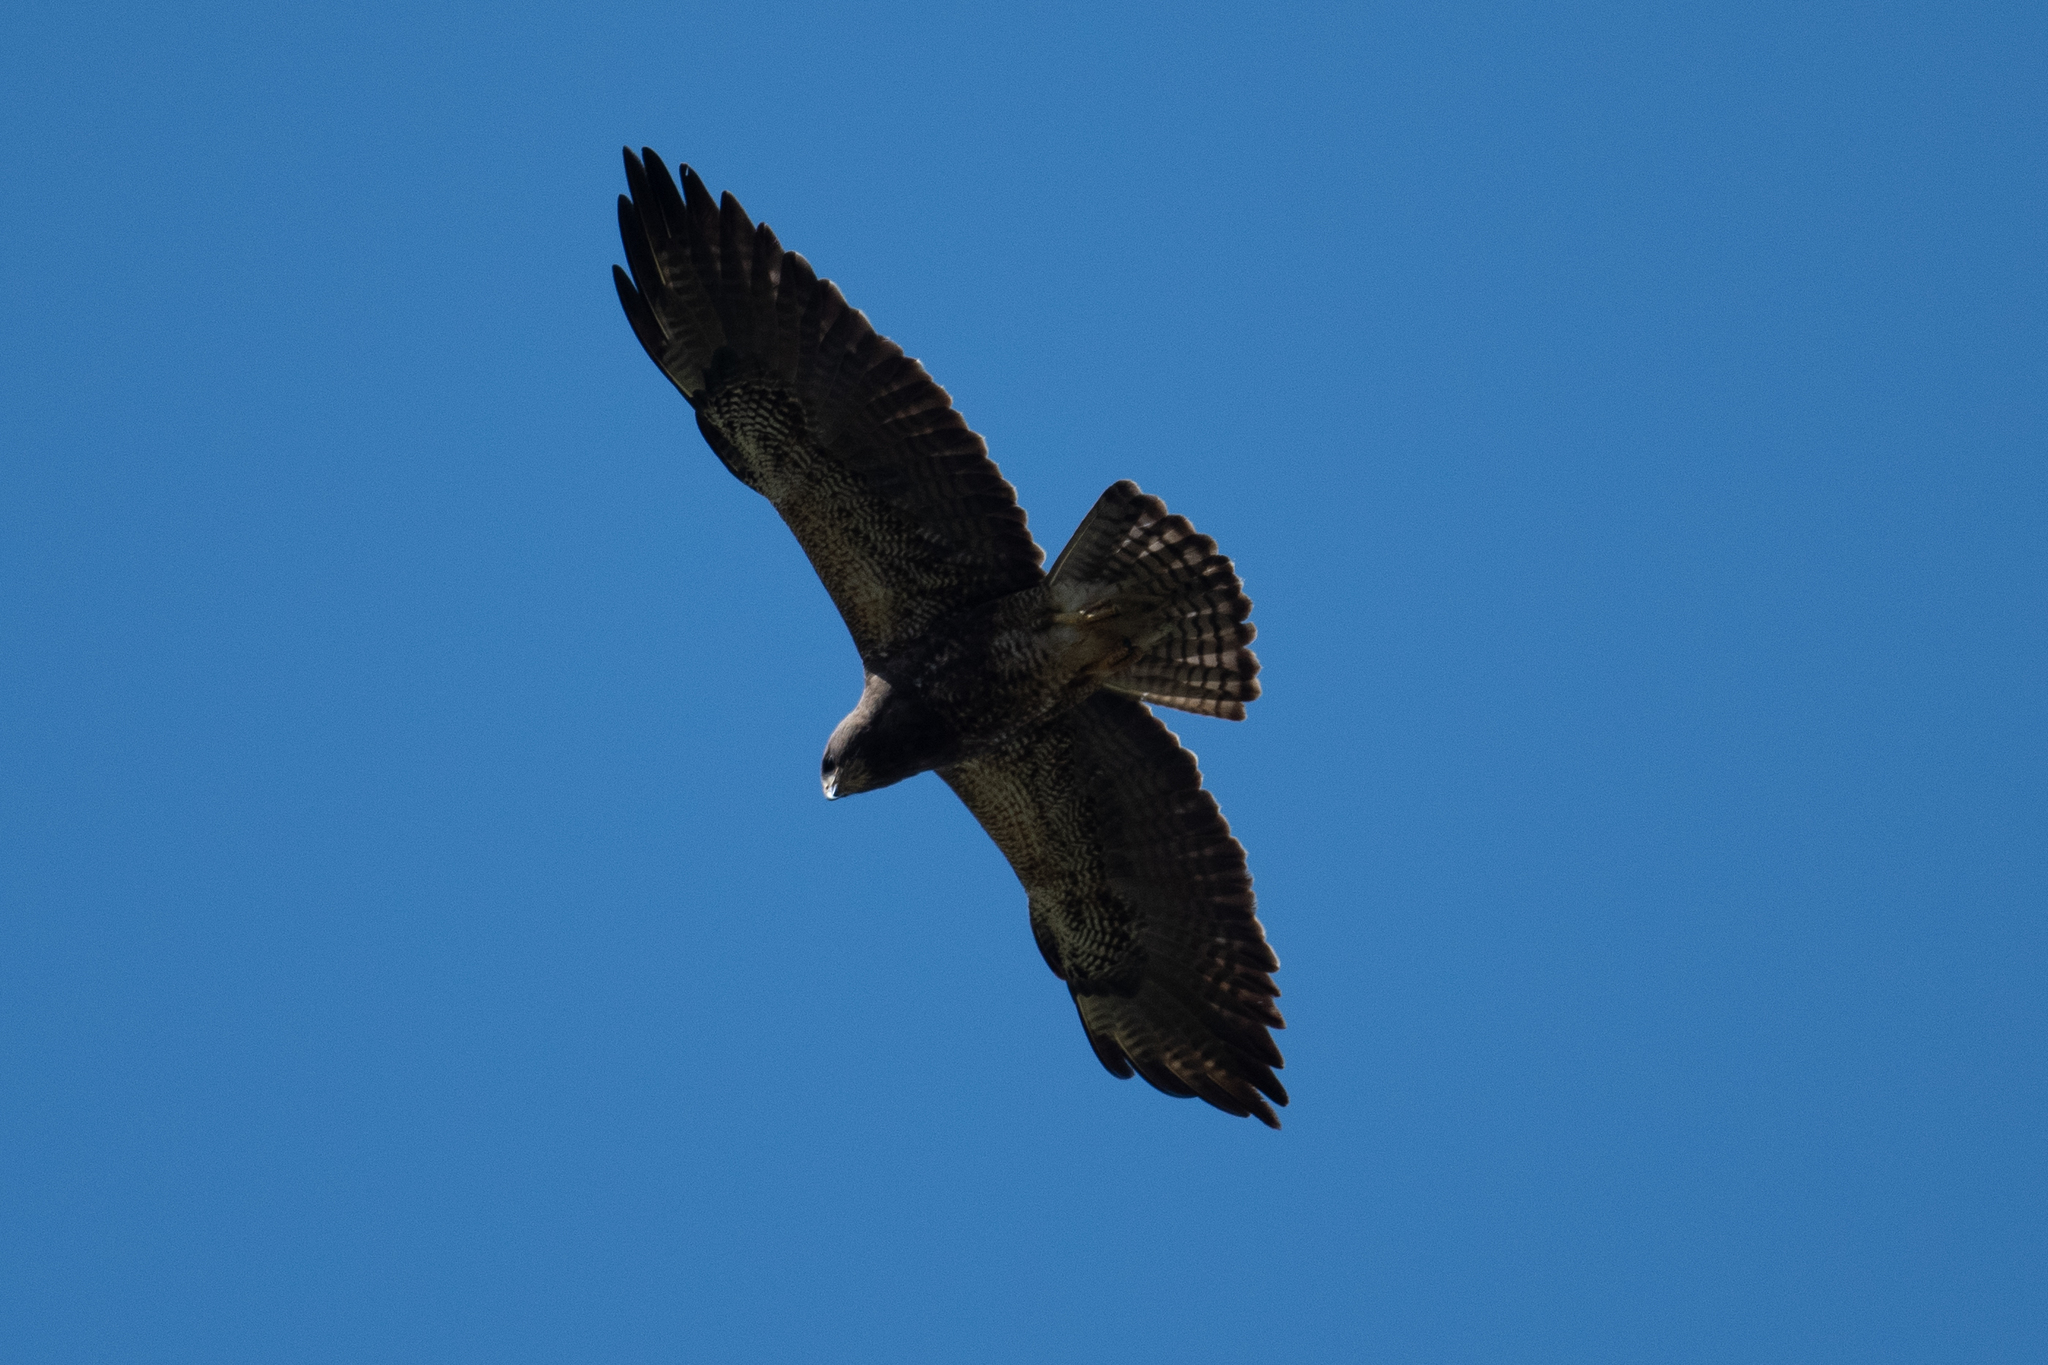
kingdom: Animalia
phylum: Chordata
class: Aves
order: Accipitriformes
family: Accipitridae
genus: Buteo
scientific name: Buteo swainsoni
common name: Swainson's hawk
